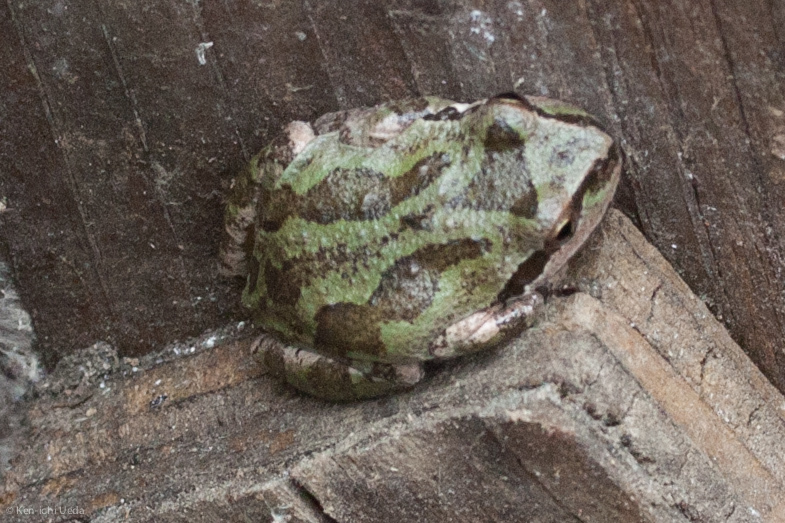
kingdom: Animalia
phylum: Chordata
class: Amphibia
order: Anura
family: Hylidae
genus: Pseudacris
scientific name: Pseudacris regilla
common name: Pacific chorus frog
